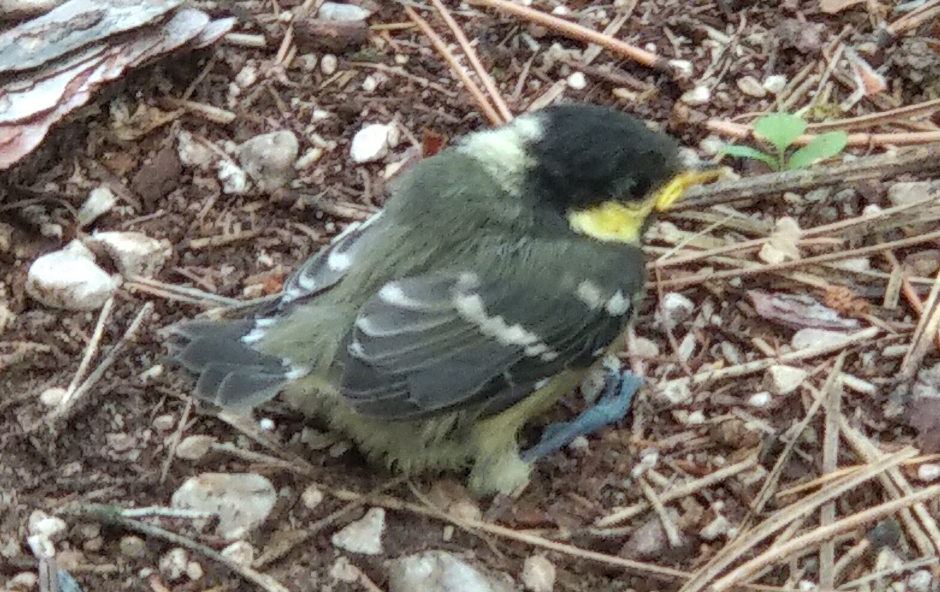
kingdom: Animalia
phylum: Chordata
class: Aves
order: Passeriformes
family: Paridae
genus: Periparus
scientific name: Periparus ater
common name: Coal tit
